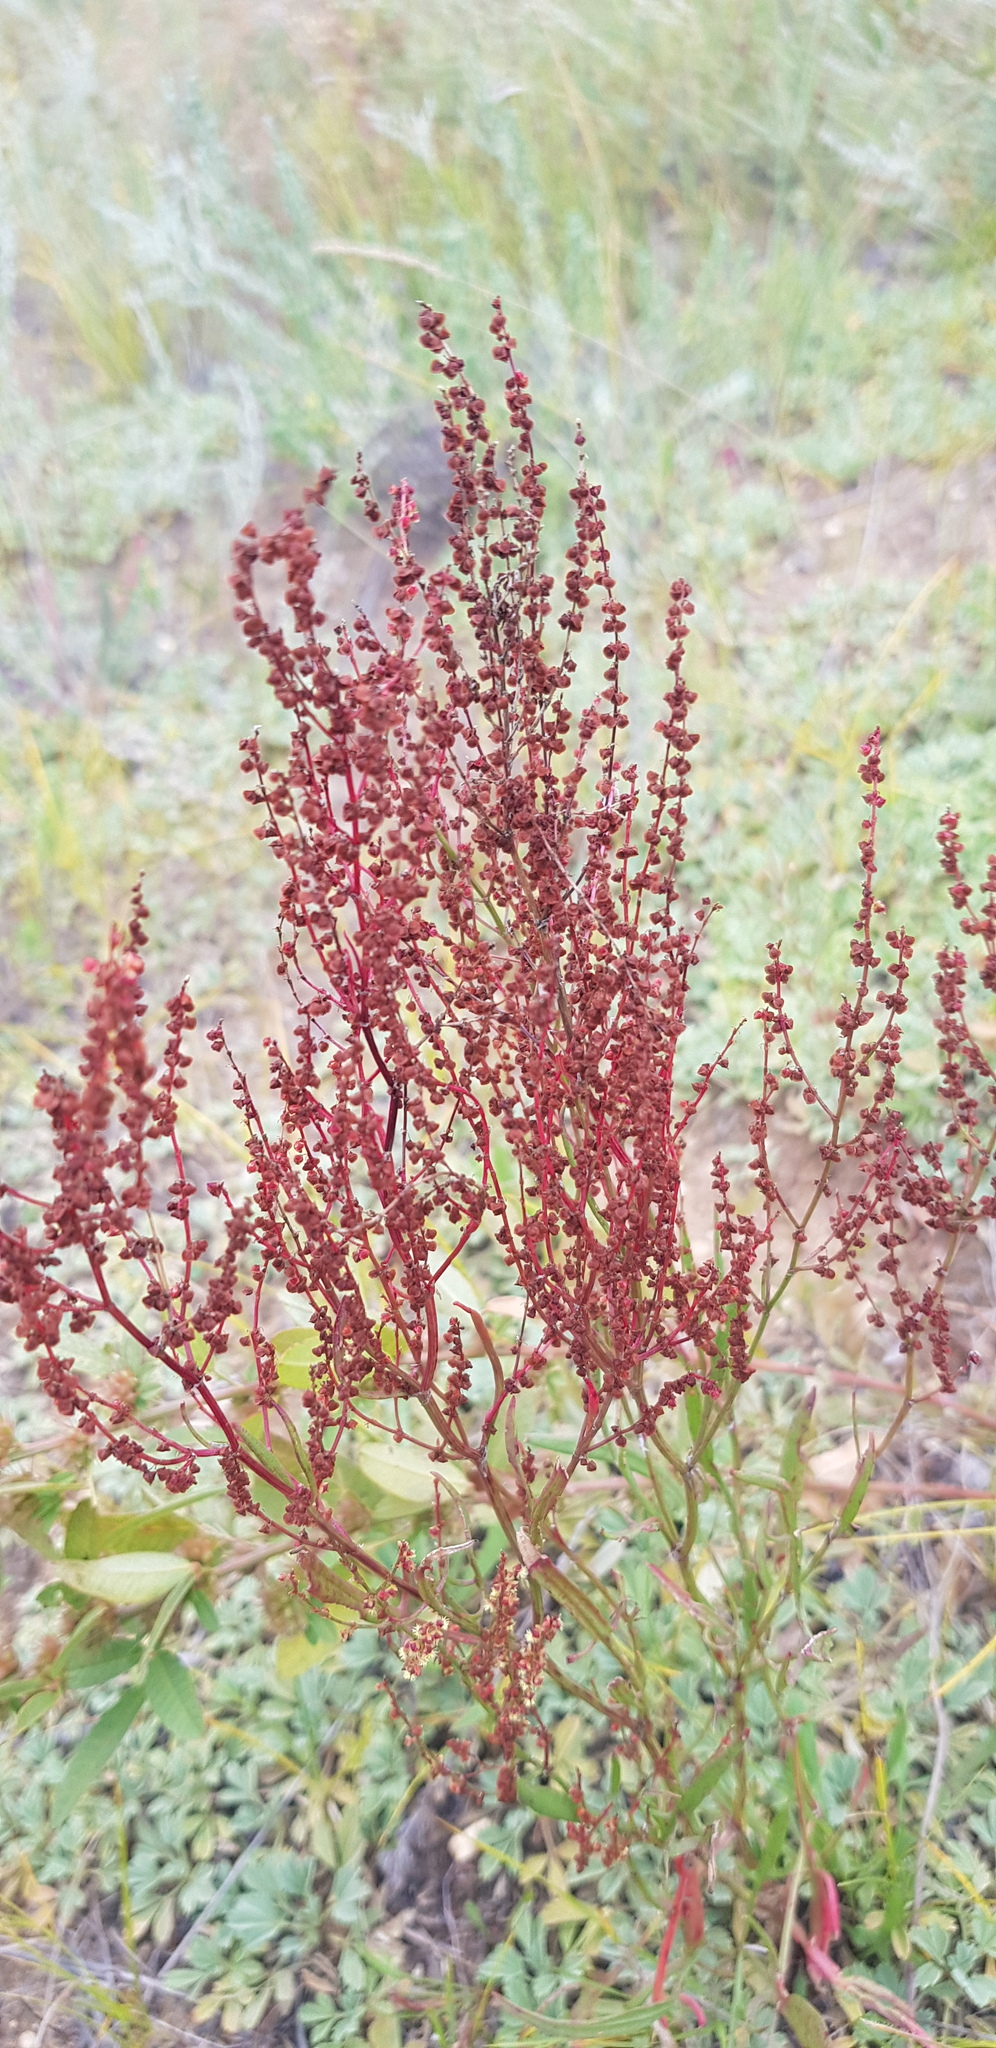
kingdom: Plantae
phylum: Tracheophyta
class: Magnoliopsida
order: Caryophyllales
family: Polygonaceae
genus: Rumex
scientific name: Rumex acetosella
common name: Common sheep sorrel
